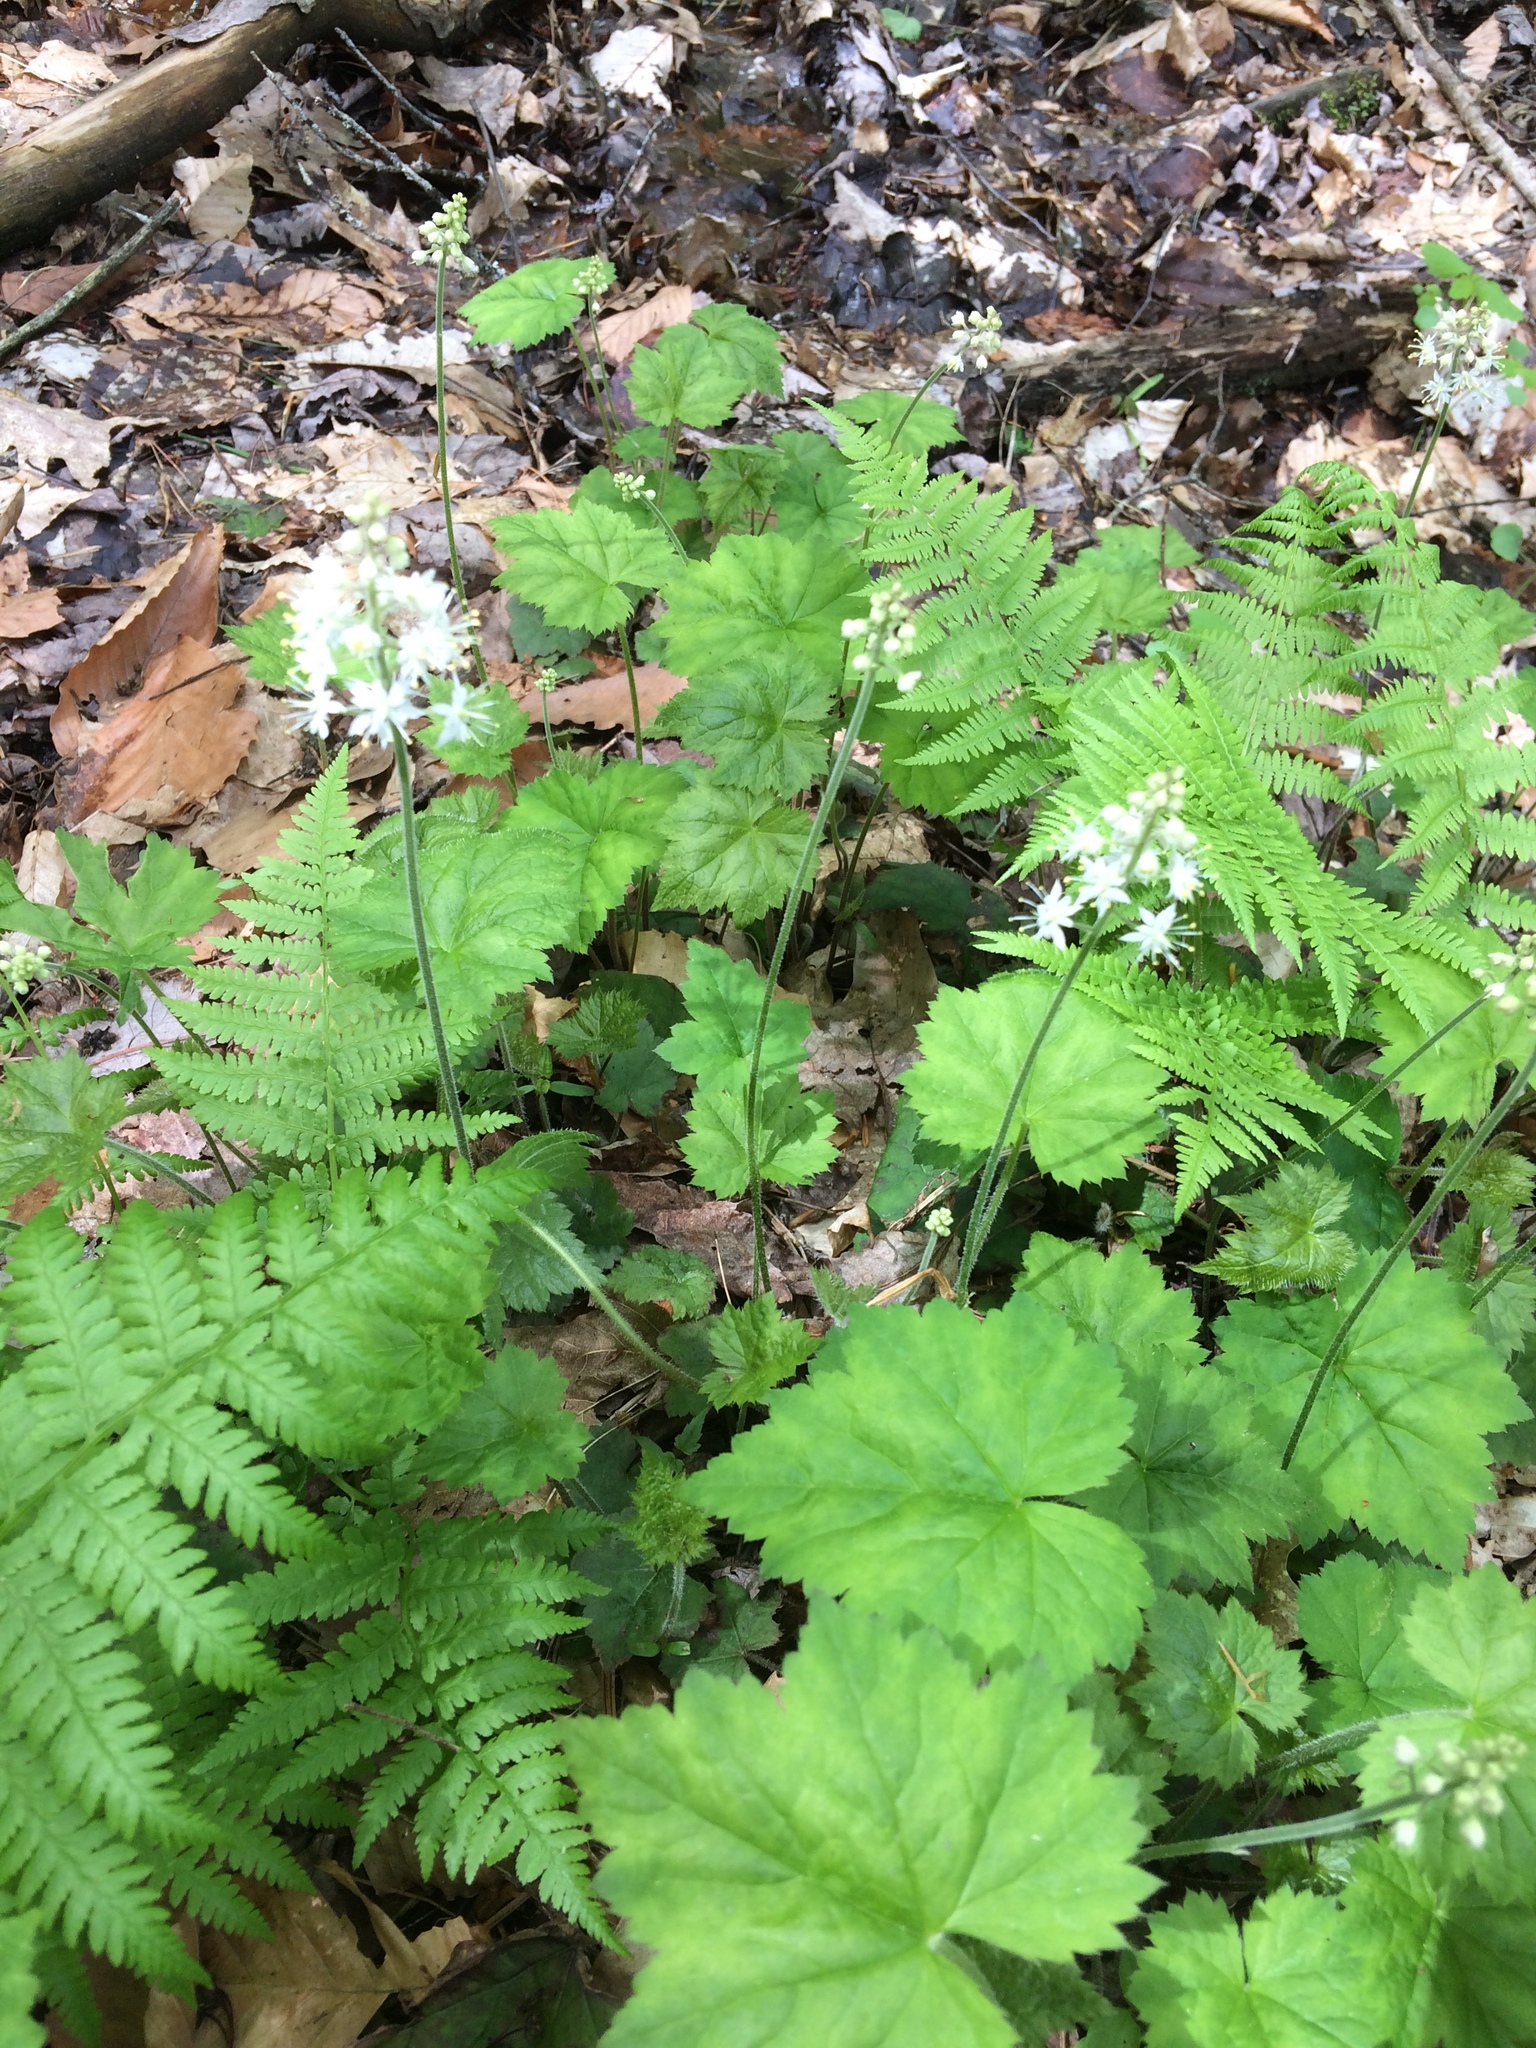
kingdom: Plantae
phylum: Tracheophyta
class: Magnoliopsida
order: Saxifragales
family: Saxifragaceae
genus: Tiarella
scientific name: Tiarella stolonifera
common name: Stoloniferous foamflower
